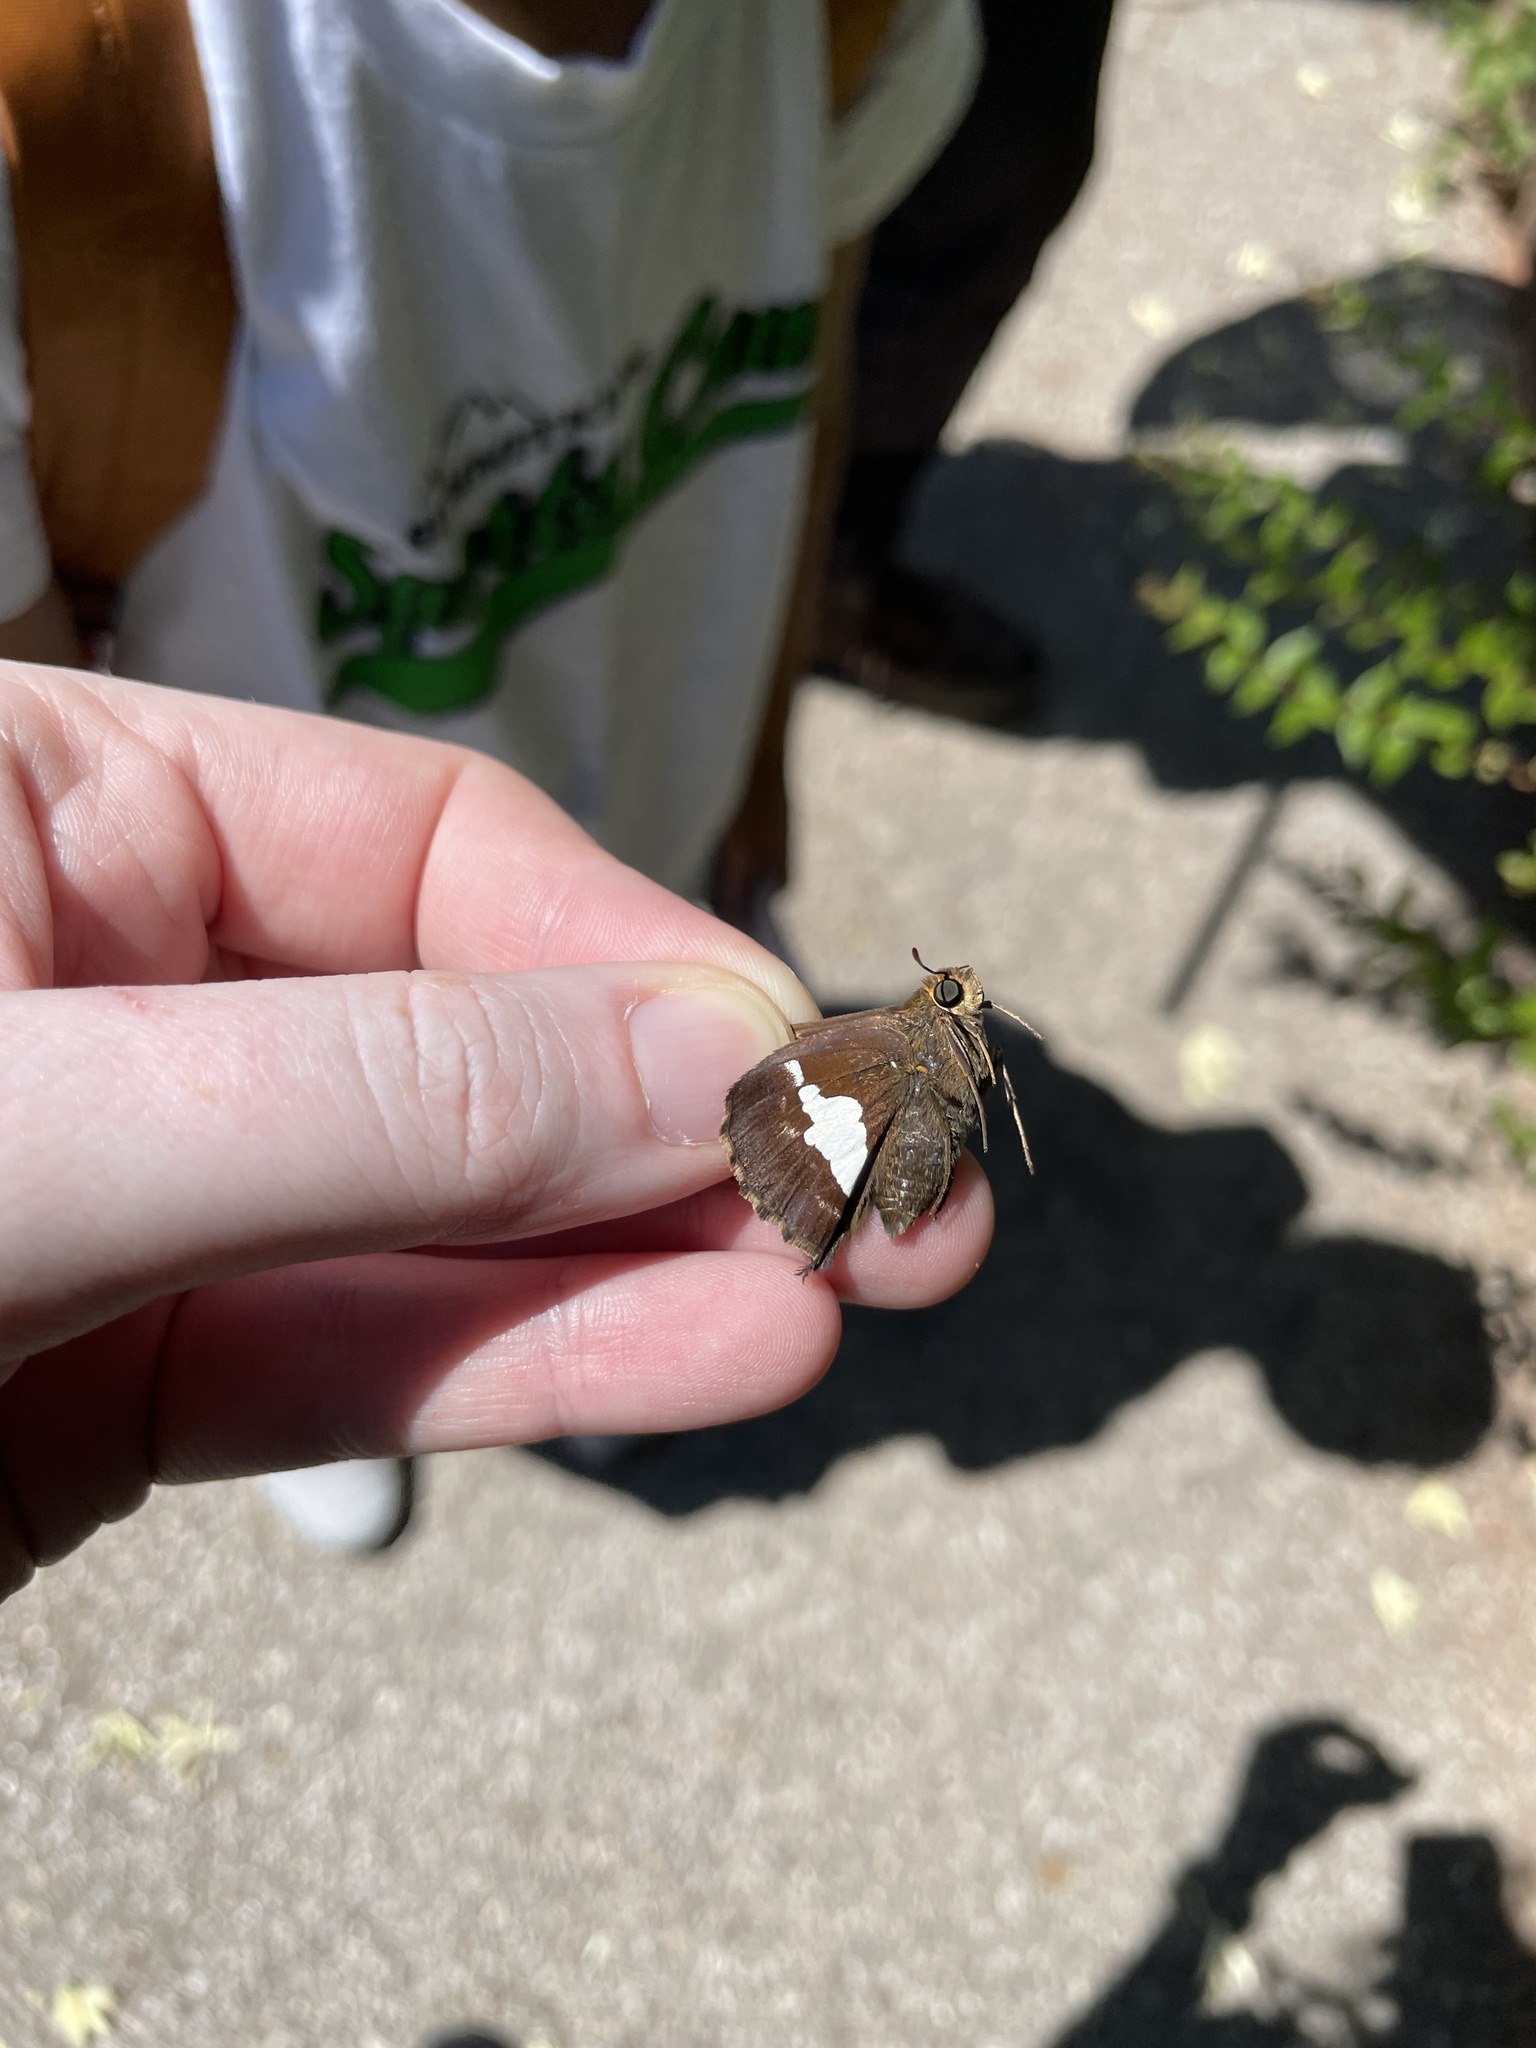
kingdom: Animalia
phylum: Arthropoda
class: Insecta
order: Lepidoptera
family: Hesperiidae
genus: Epargyreus
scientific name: Epargyreus clarus
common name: Silver-spotted skipper
